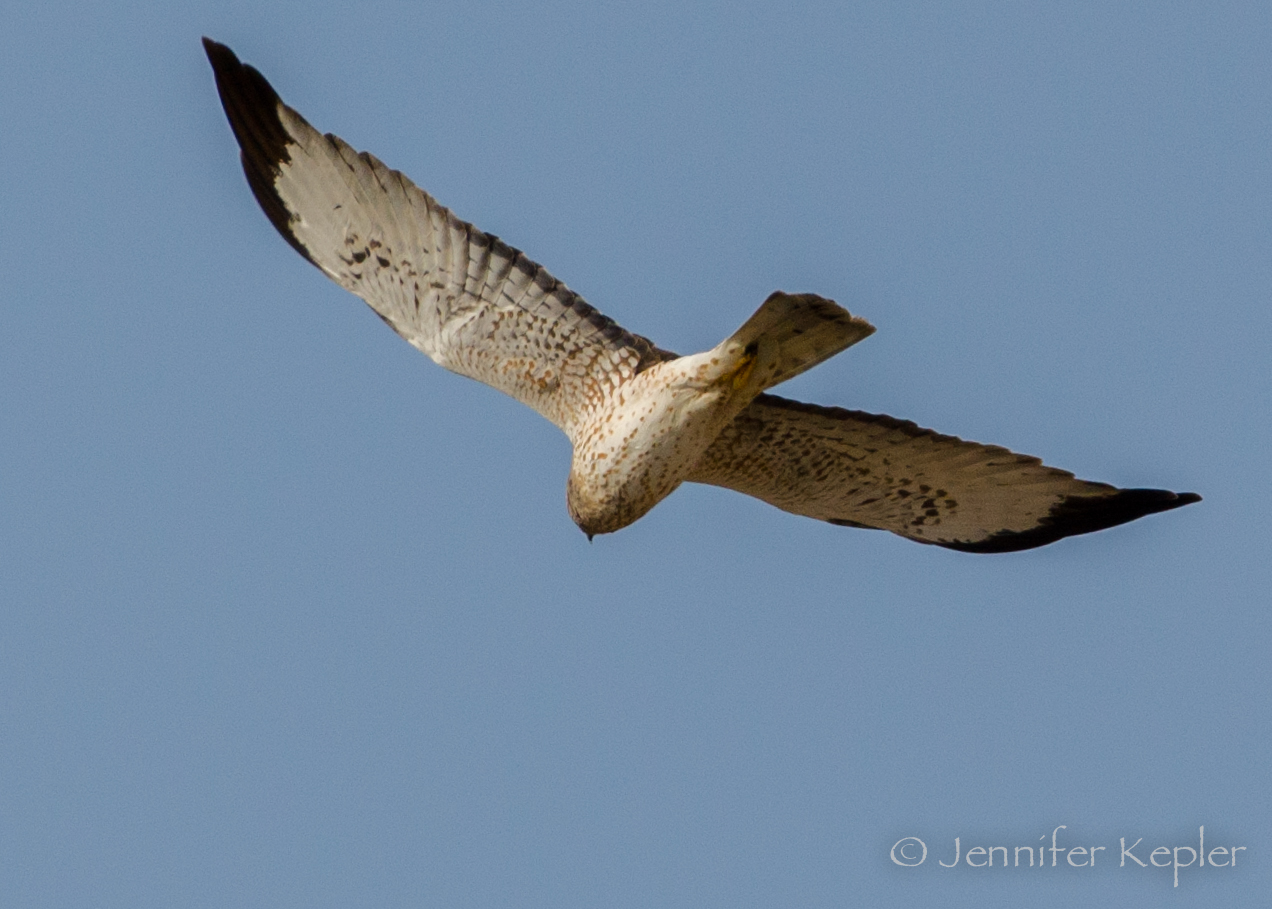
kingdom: Animalia
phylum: Chordata
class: Aves
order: Accipitriformes
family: Accipitridae
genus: Circus
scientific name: Circus cyaneus
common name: Hen harrier
